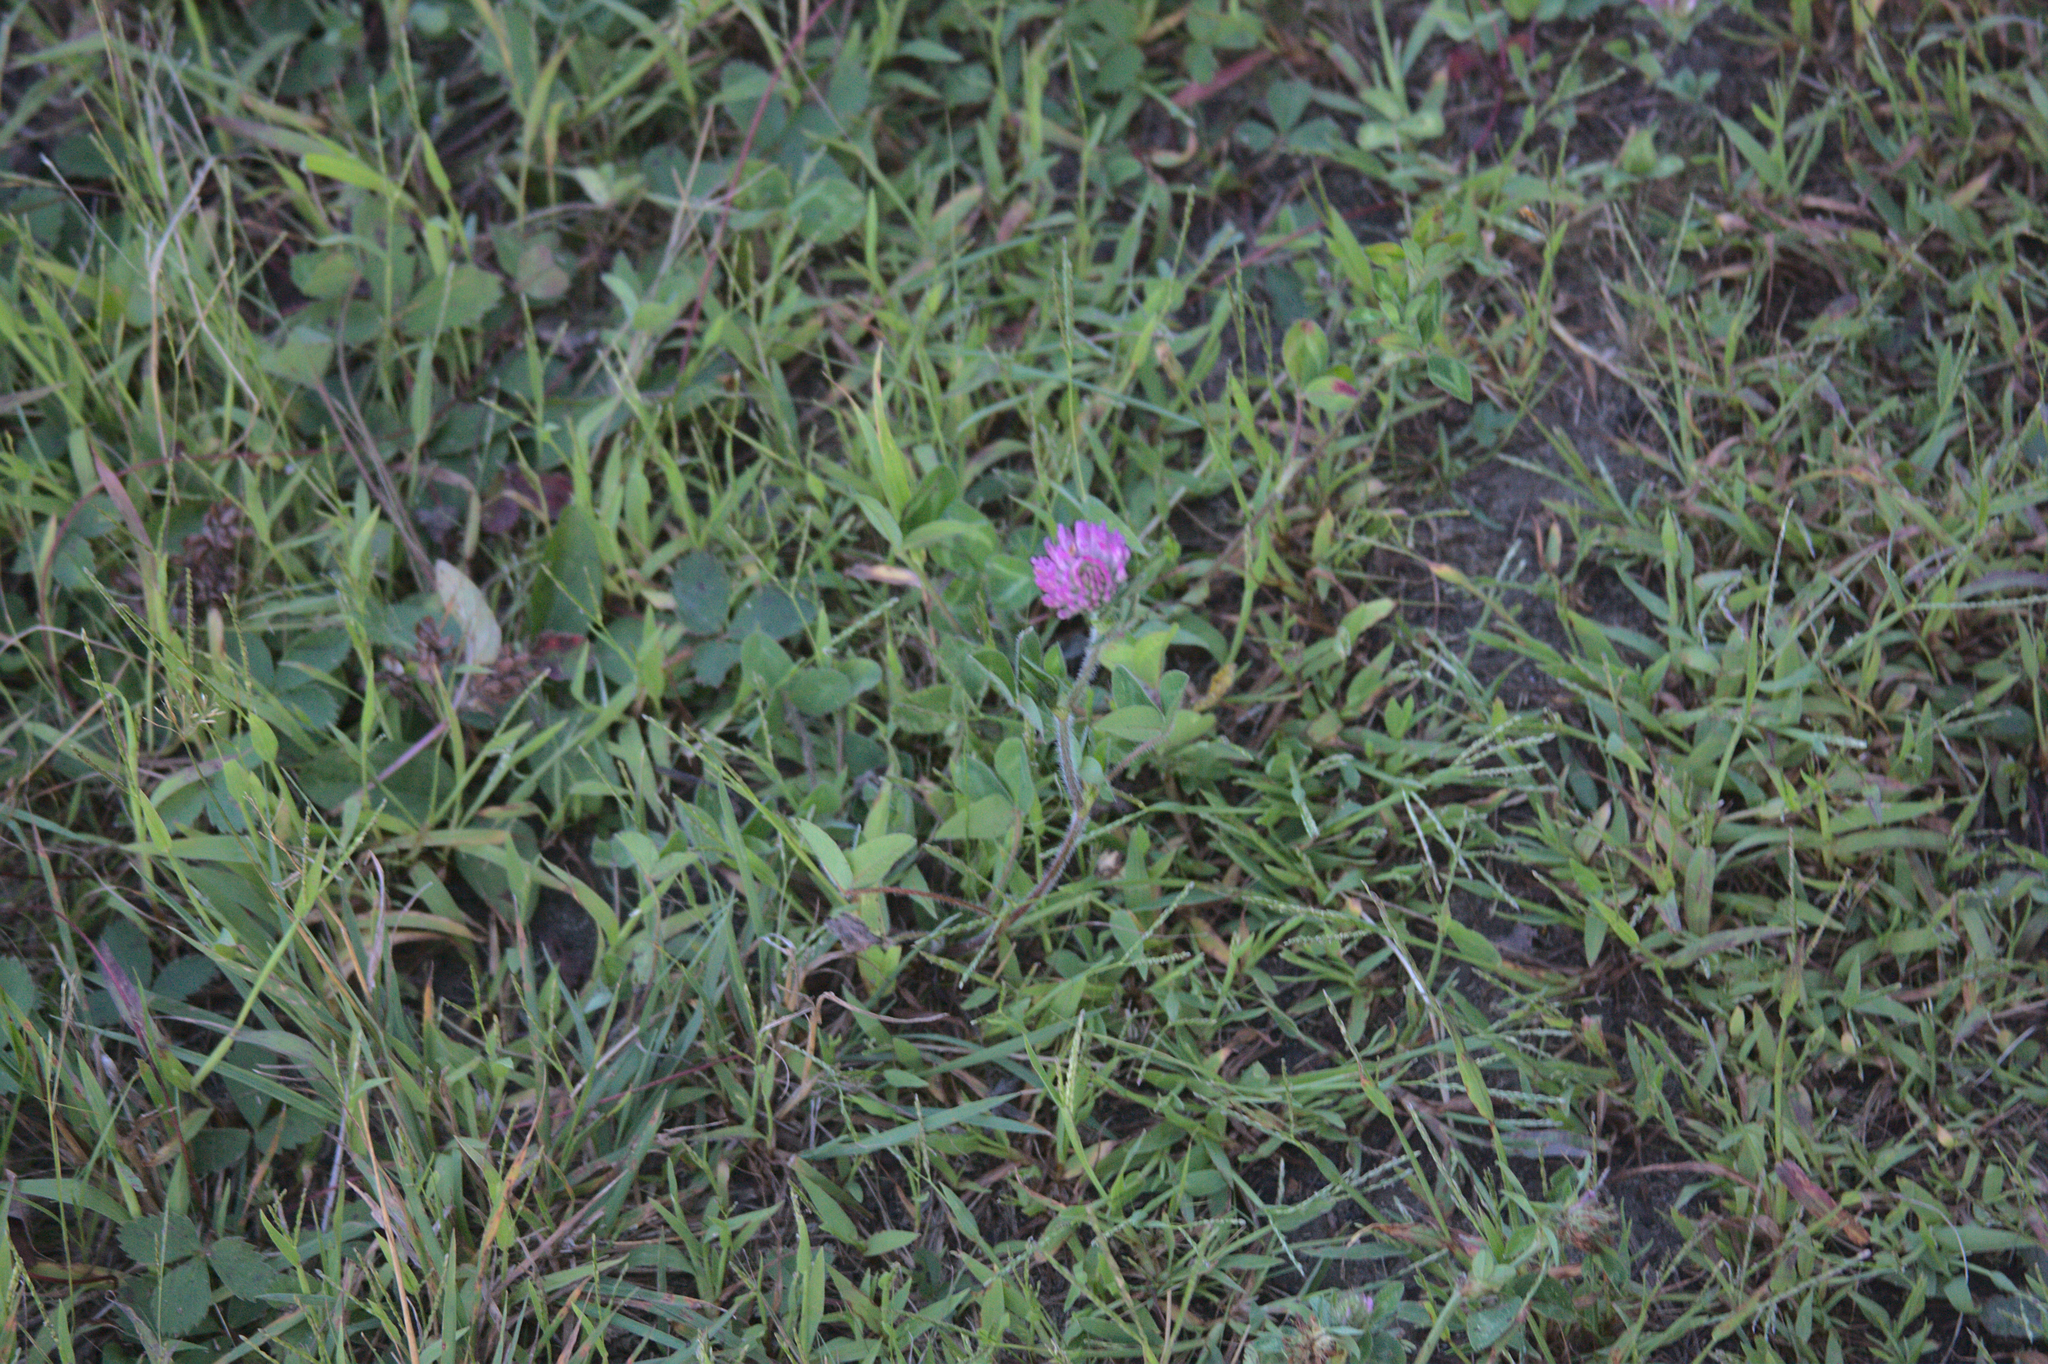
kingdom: Plantae
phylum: Tracheophyta
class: Magnoliopsida
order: Fabales
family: Fabaceae
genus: Trifolium
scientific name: Trifolium pratense
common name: Red clover
